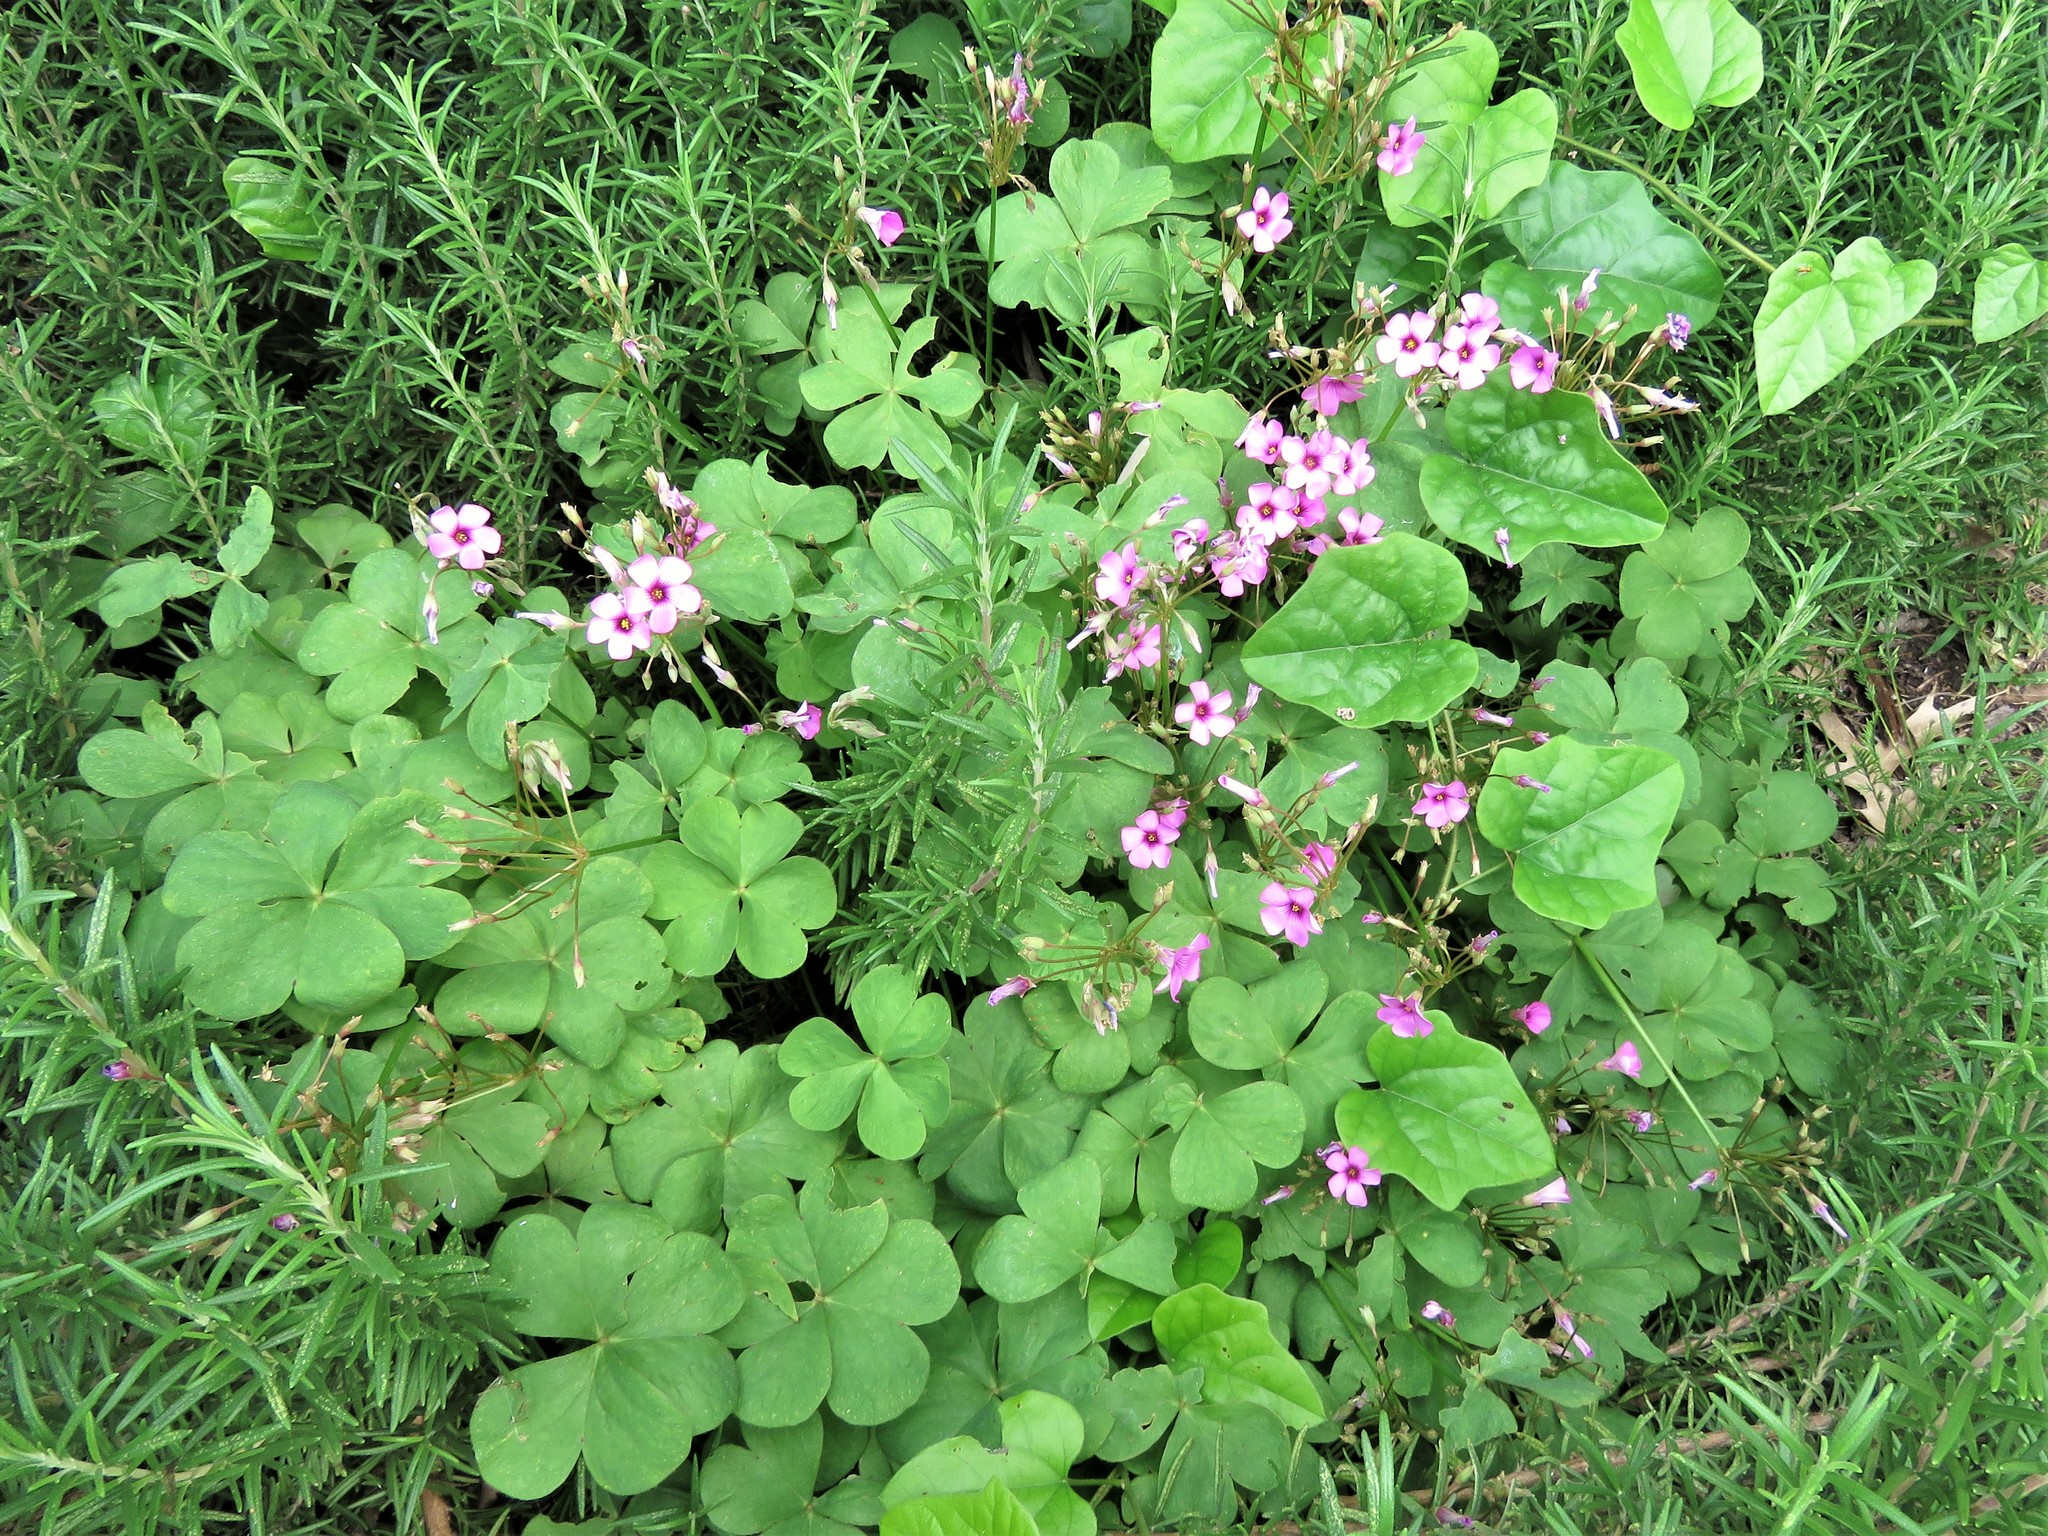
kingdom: Plantae
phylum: Tracheophyta
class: Magnoliopsida
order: Oxalidales
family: Oxalidaceae
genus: Oxalis
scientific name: Oxalis articulata
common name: Pink-sorrel
